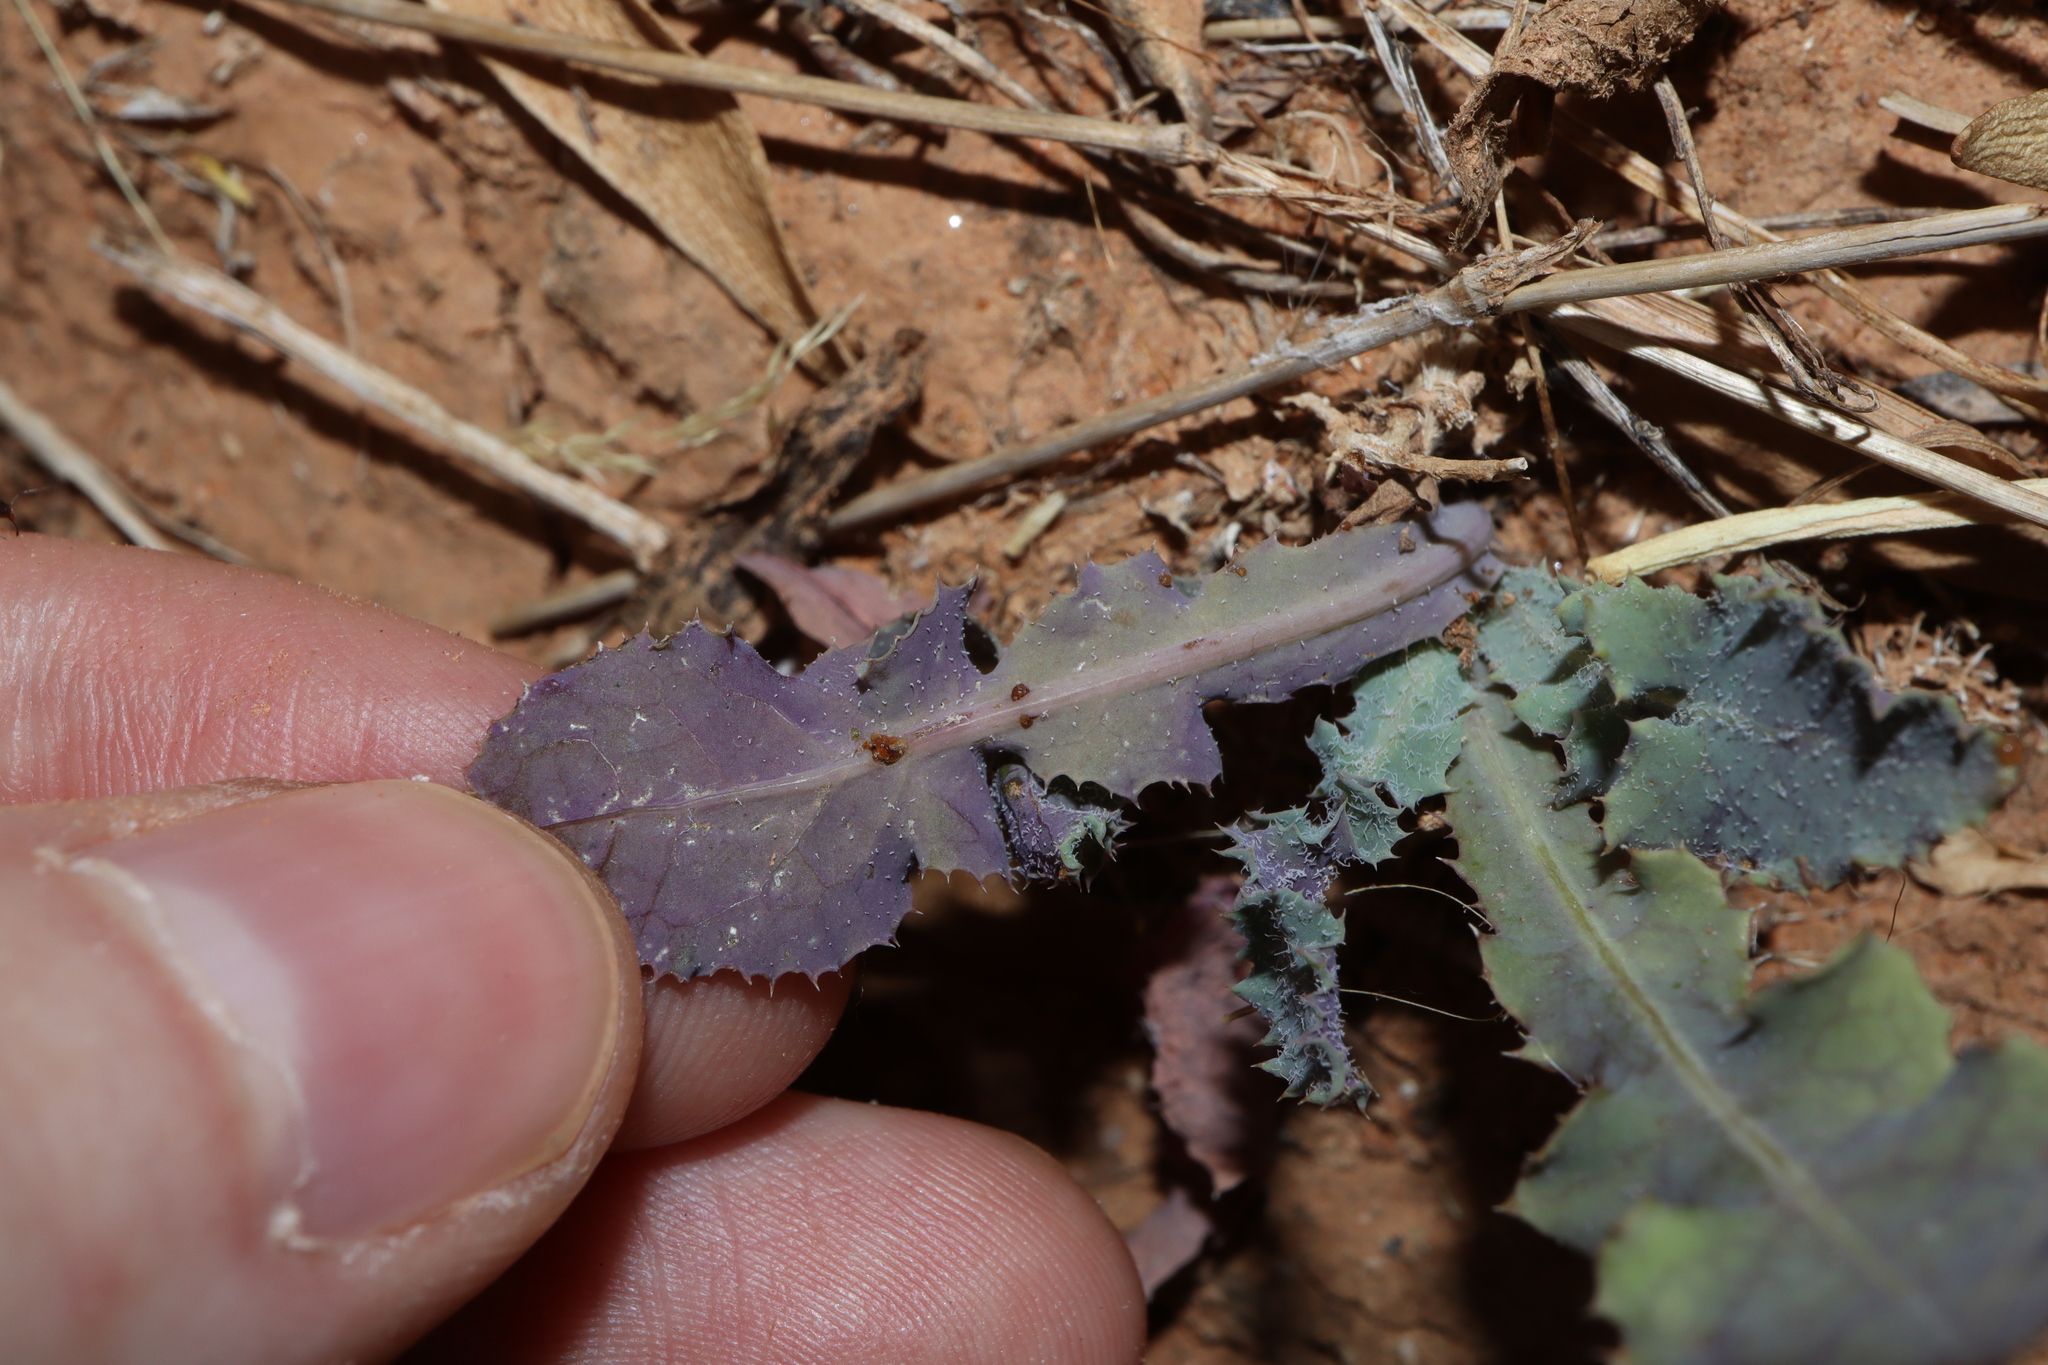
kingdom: Plantae
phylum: Tracheophyta
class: Magnoliopsida
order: Asterales
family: Asteraceae
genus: Sonchus
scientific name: Sonchus oleraceus
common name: Common sowthistle
